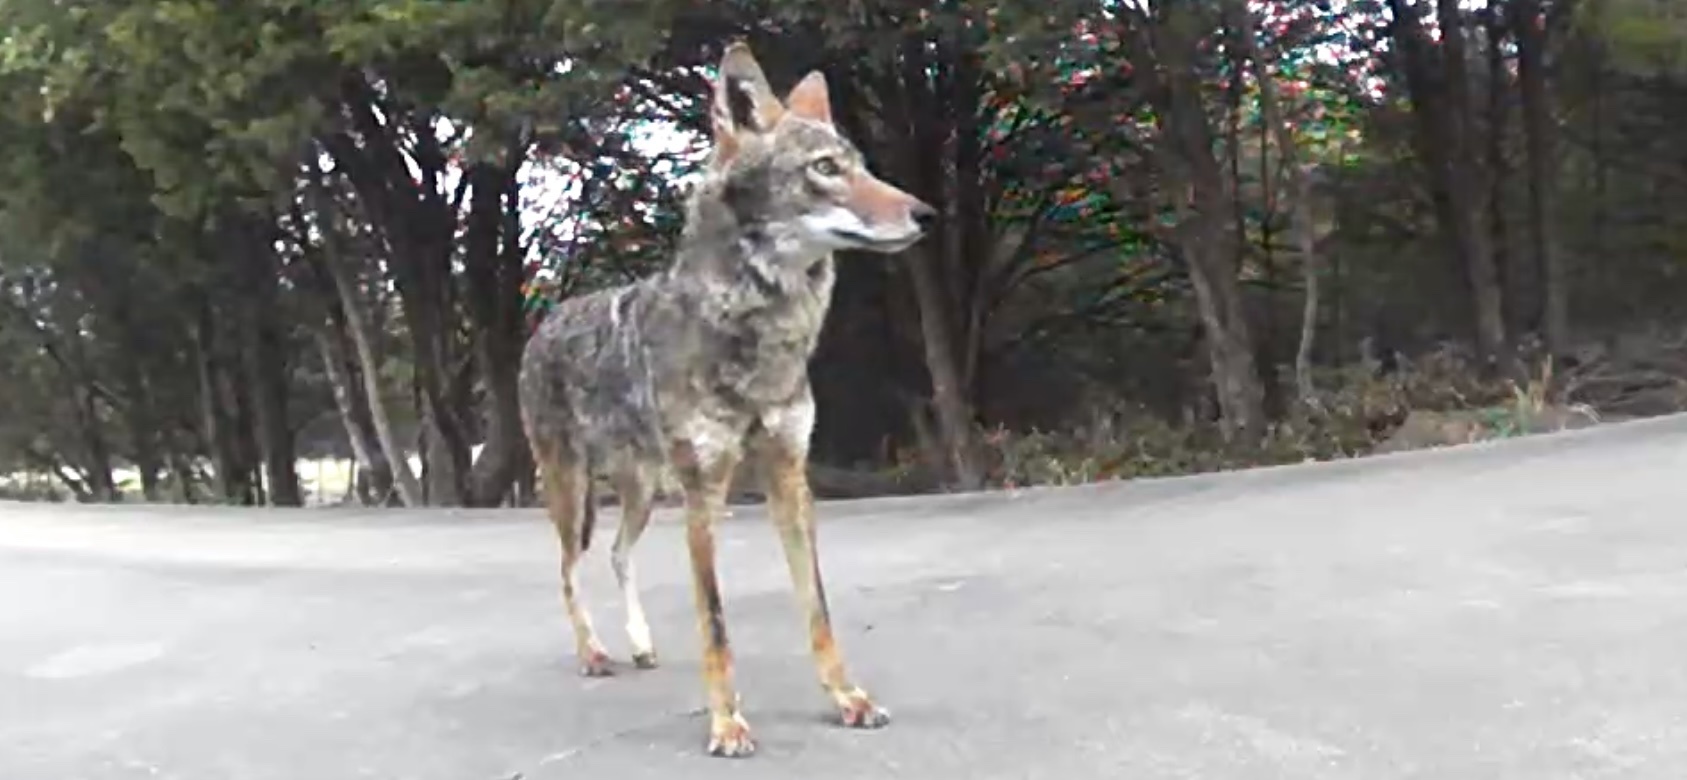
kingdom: Animalia
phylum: Chordata
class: Mammalia
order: Carnivora
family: Canidae
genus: Canis
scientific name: Canis latrans
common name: Coyote
